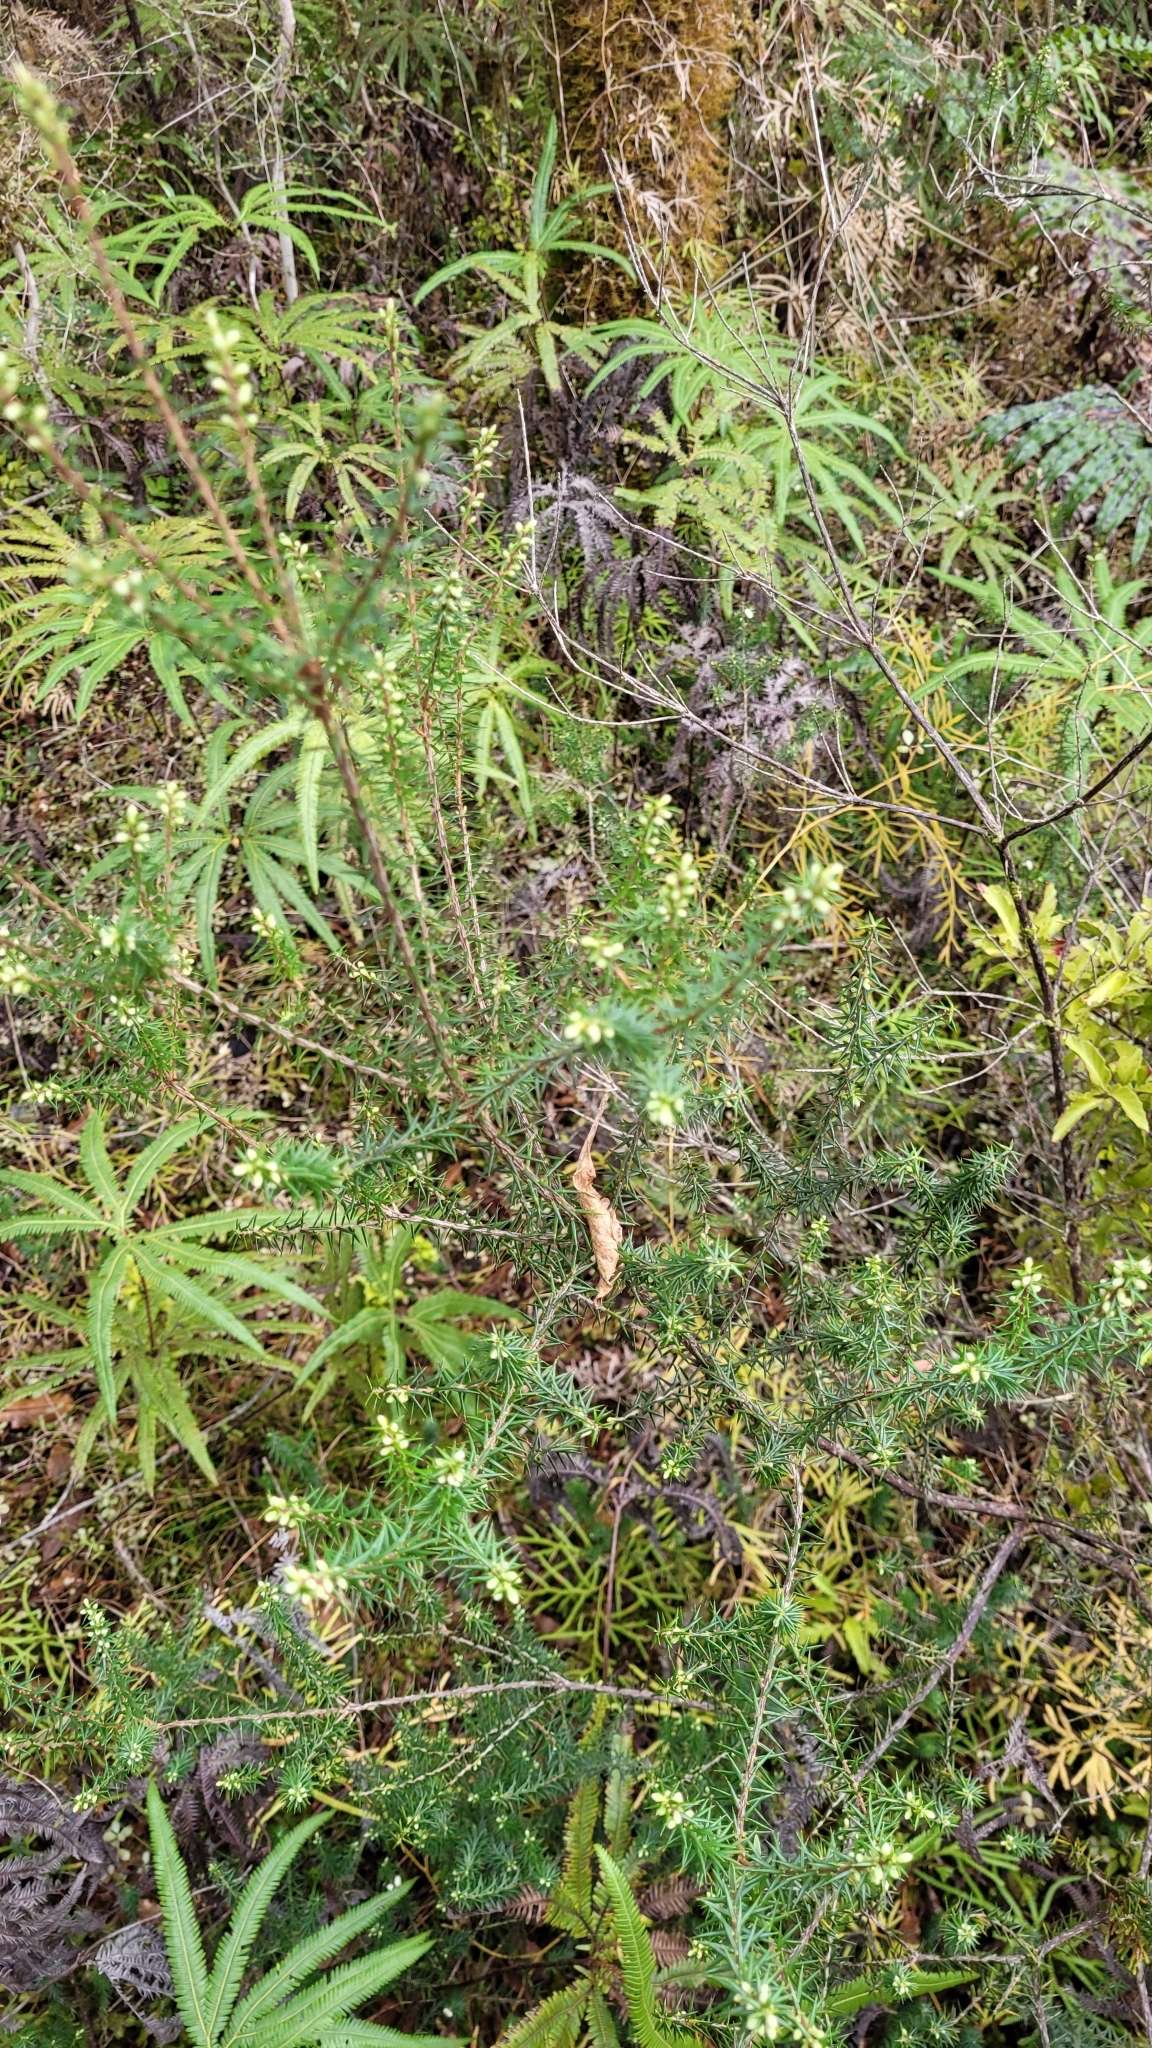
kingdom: Plantae
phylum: Tracheophyta
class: Magnoliopsida
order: Ericales
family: Ericaceae
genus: Leptecophylla
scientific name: Leptecophylla juniperina
